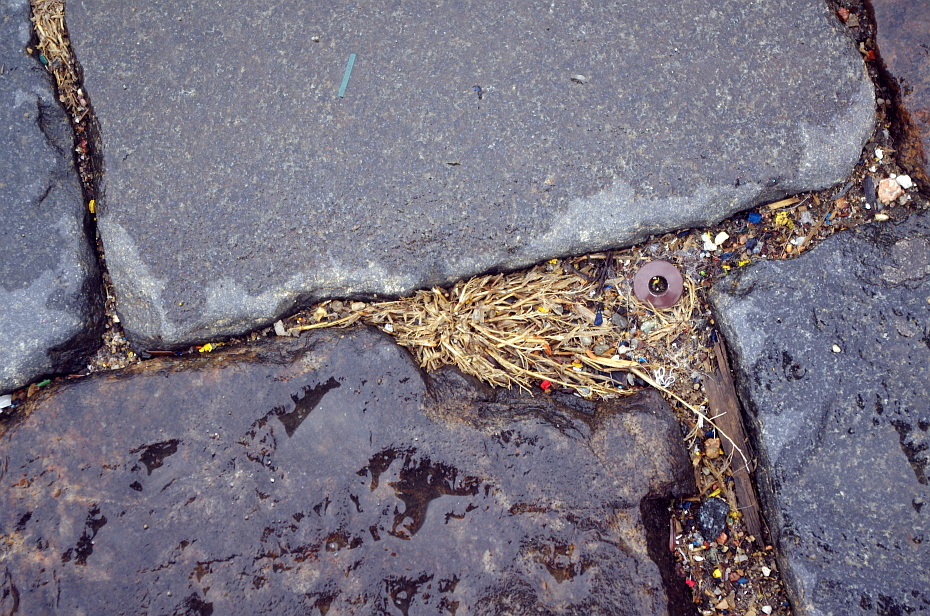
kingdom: Plantae
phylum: Tracheophyta
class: Liliopsida
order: Poales
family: Poaceae
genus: Poa
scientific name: Poa annua
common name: Annual bluegrass
